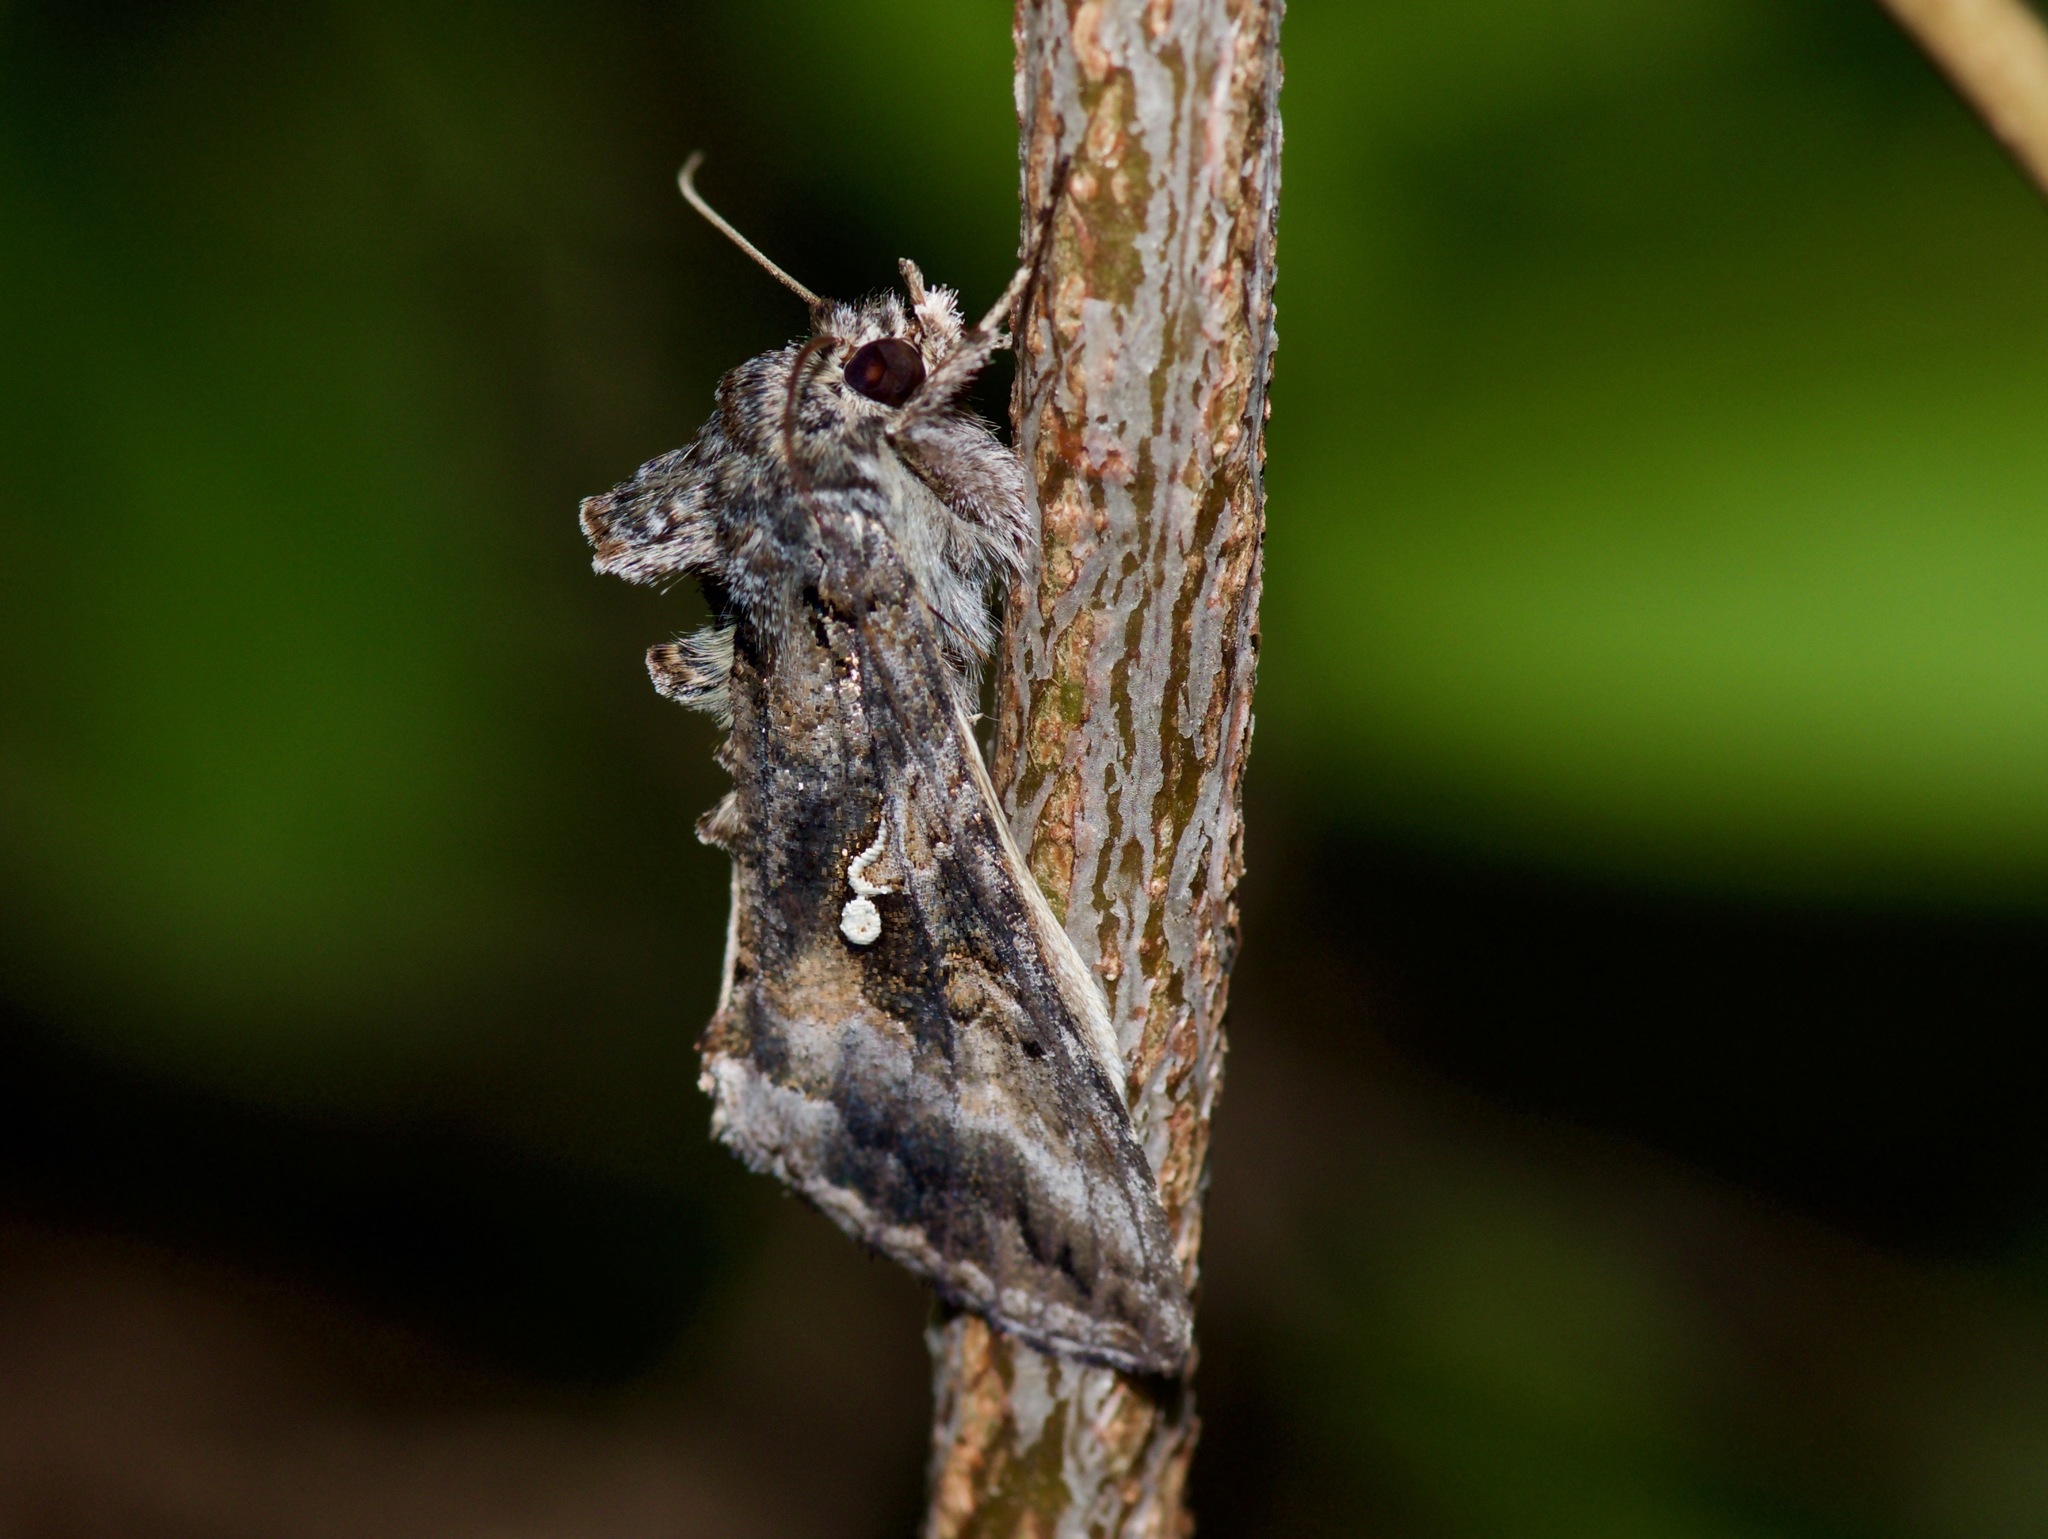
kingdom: Animalia
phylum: Arthropoda
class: Insecta
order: Lepidoptera
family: Noctuidae
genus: Rachiplusia
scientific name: Rachiplusia ou
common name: Gray looper moth
